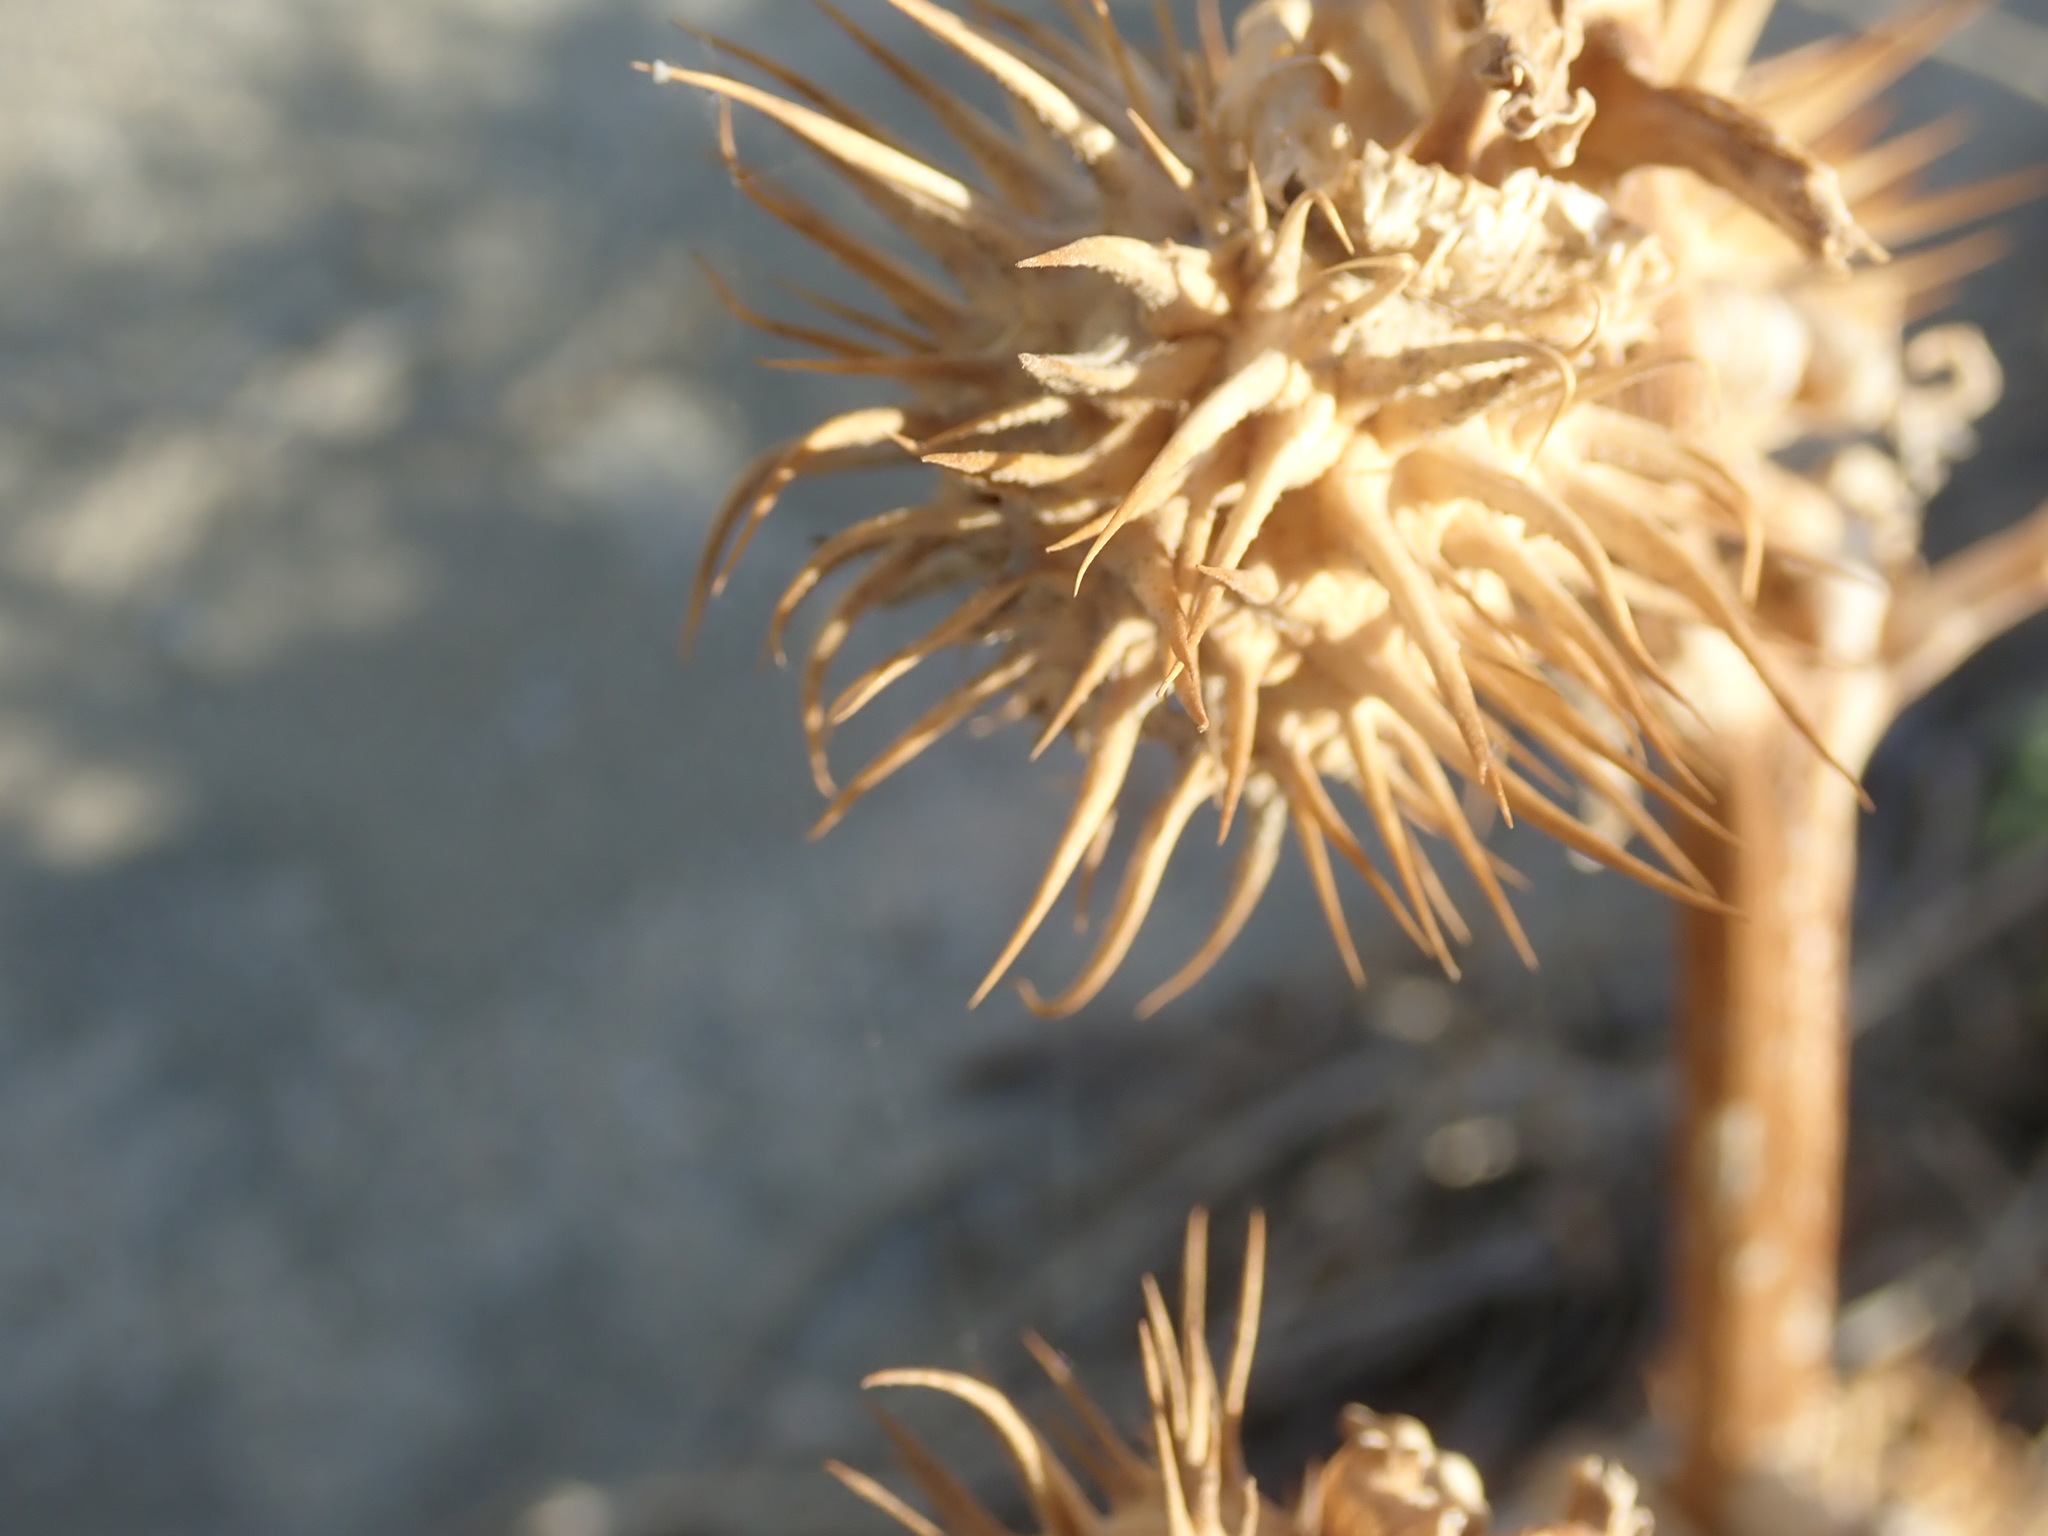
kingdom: Plantae
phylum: Tracheophyta
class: Magnoliopsida
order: Solanales
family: Solanaceae
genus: Datura
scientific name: Datura discolor
